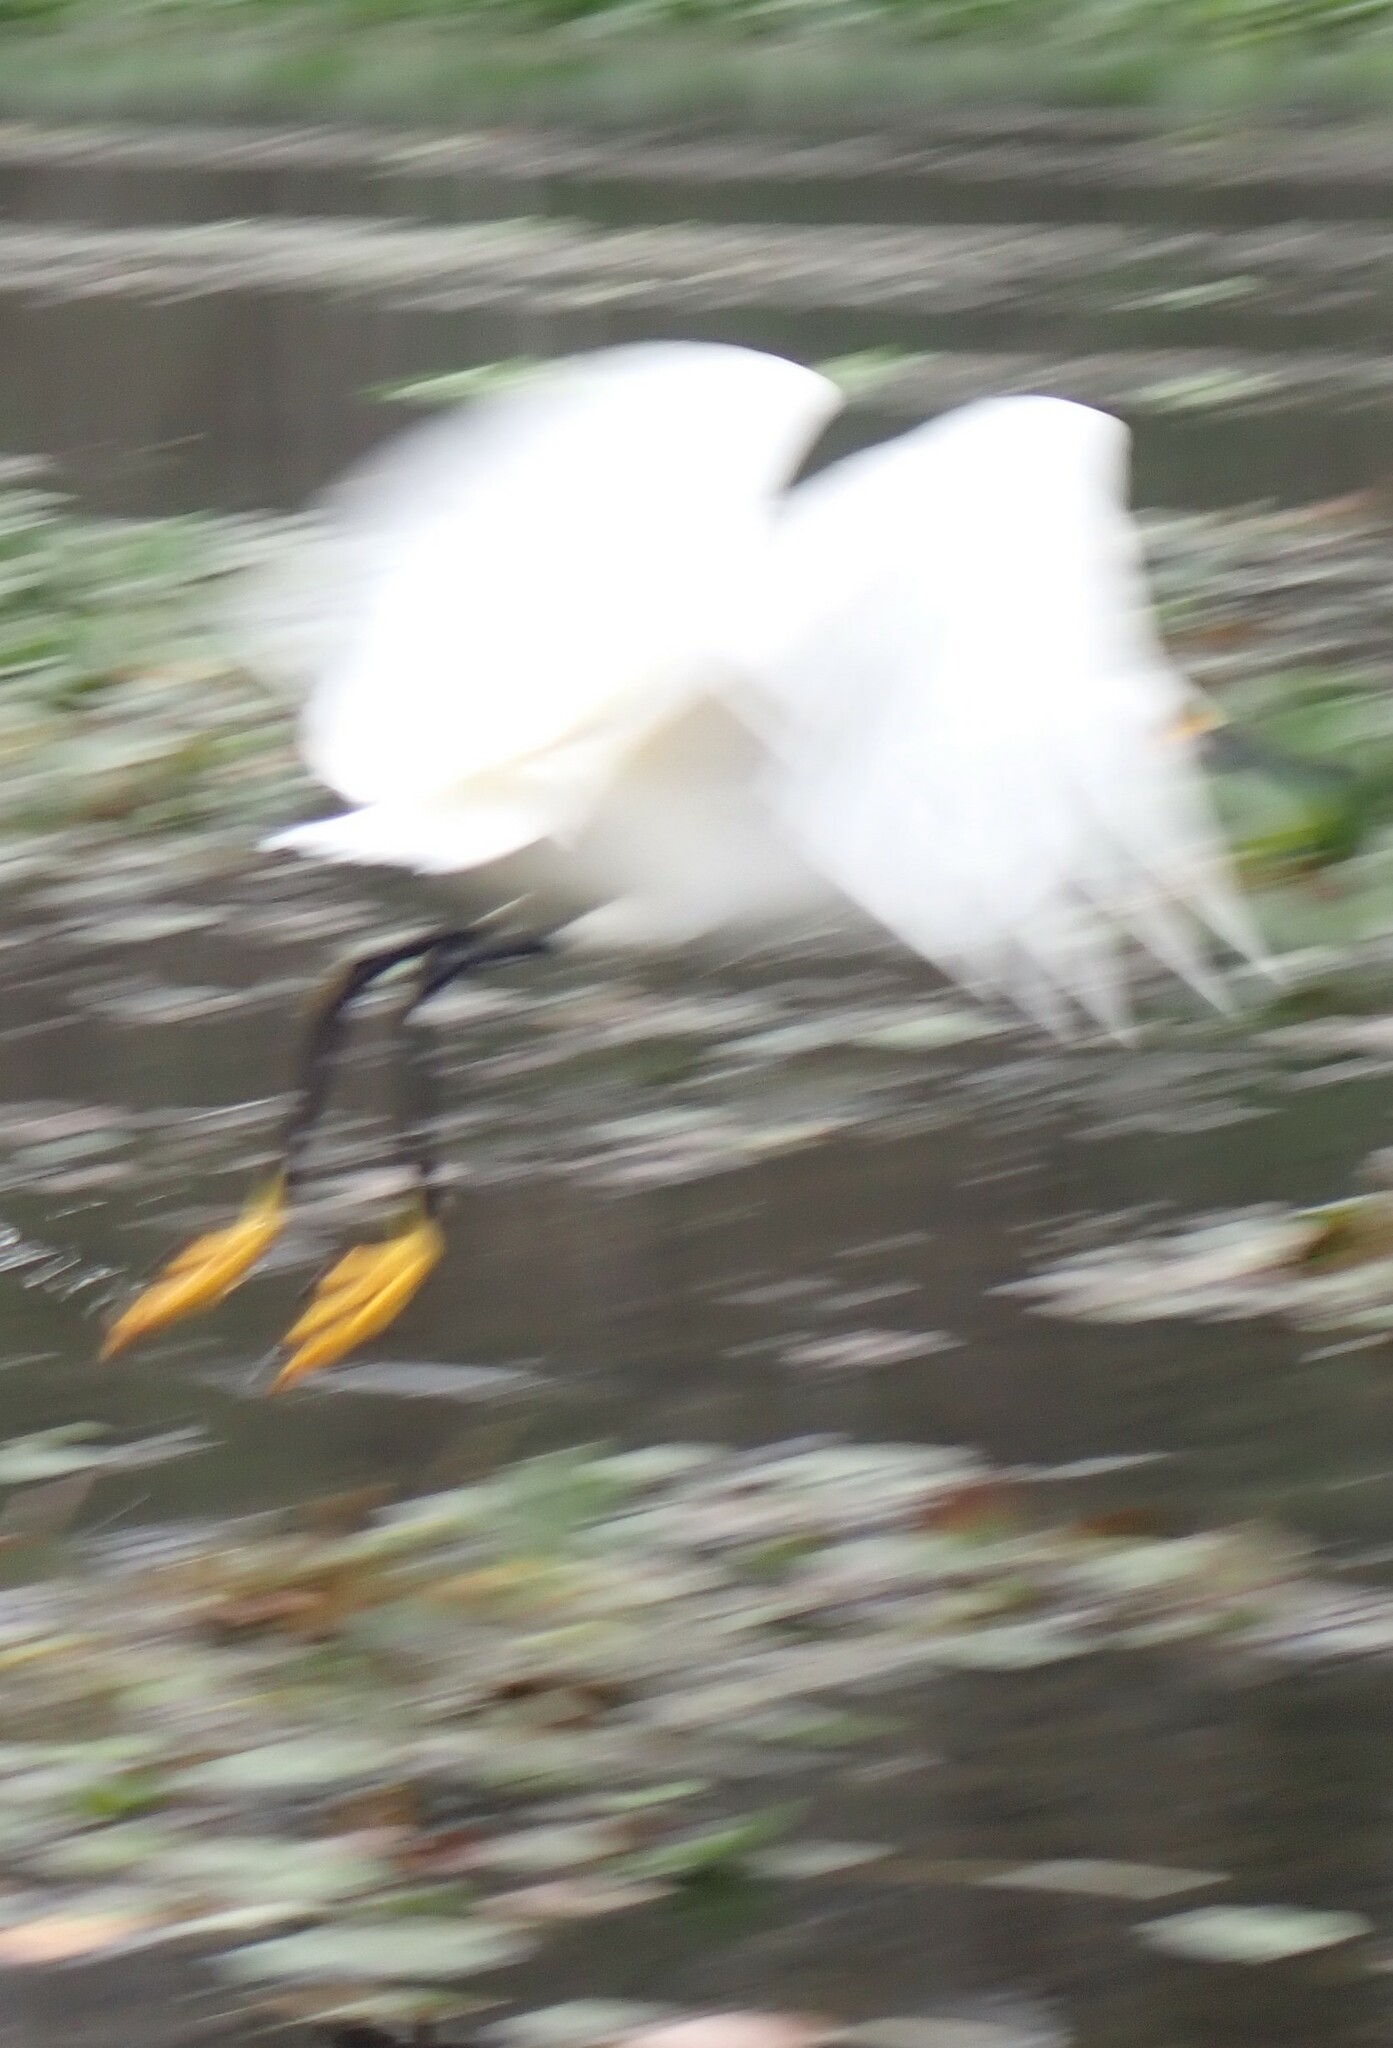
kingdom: Animalia
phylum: Chordata
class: Aves
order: Pelecaniformes
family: Ardeidae
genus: Egretta
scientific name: Egretta thula
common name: Snowy egret
